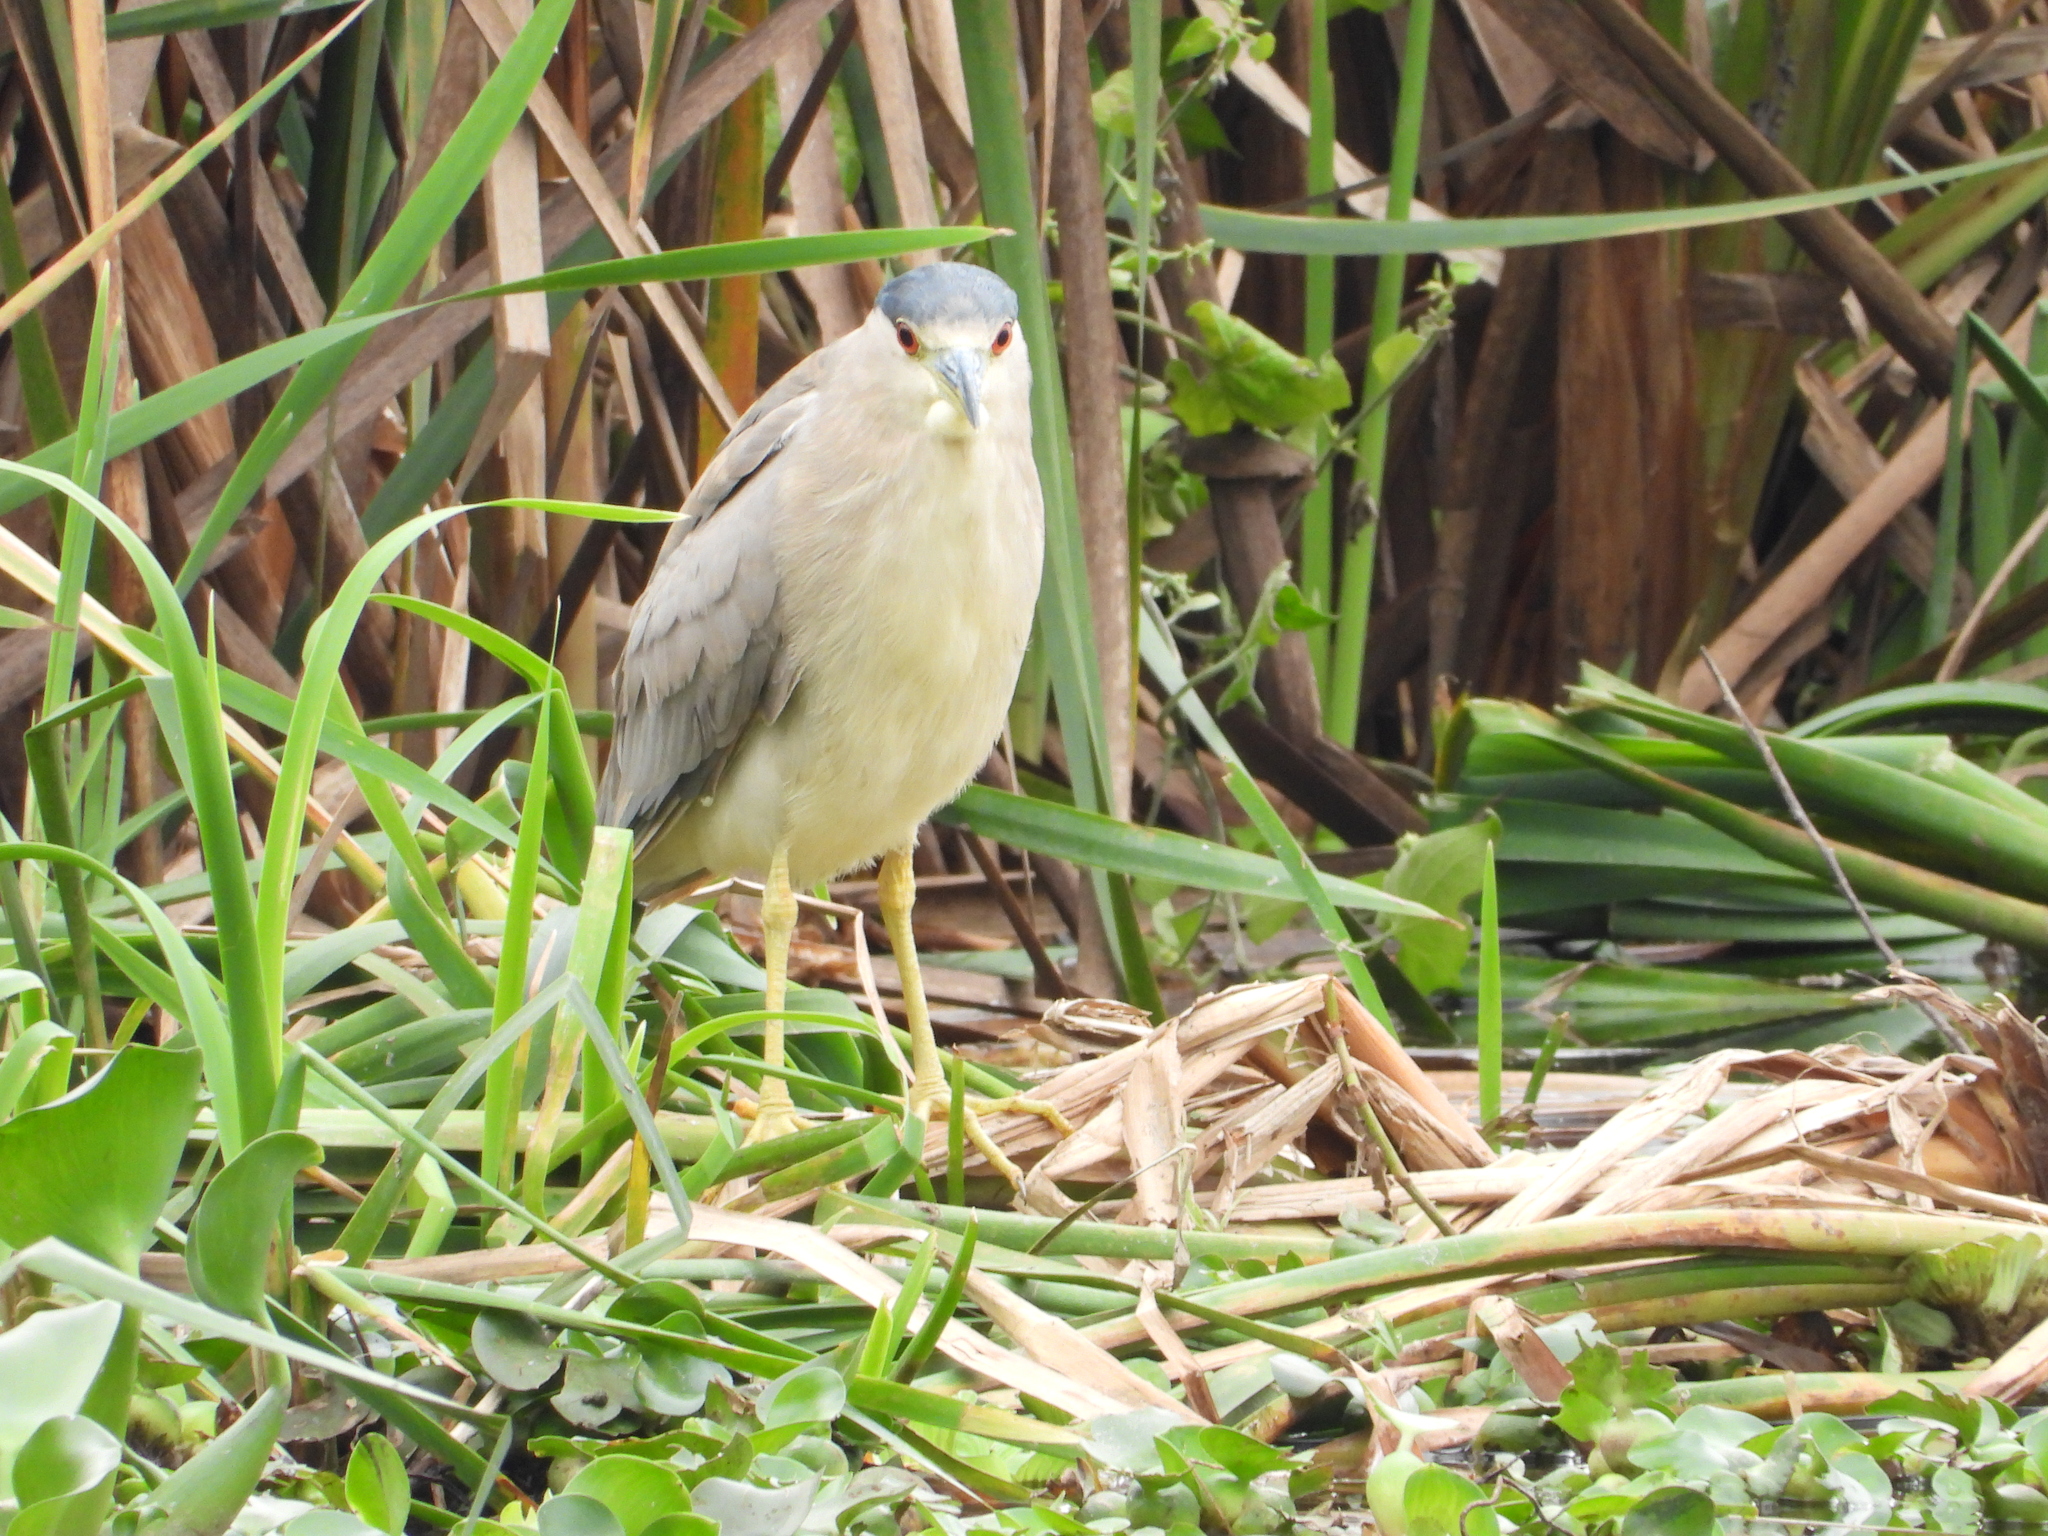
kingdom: Animalia
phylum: Chordata
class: Aves
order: Pelecaniformes
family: Ardeidae
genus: Nycticorax
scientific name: Nycticorax nycticorax
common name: Black-crowned night heron
